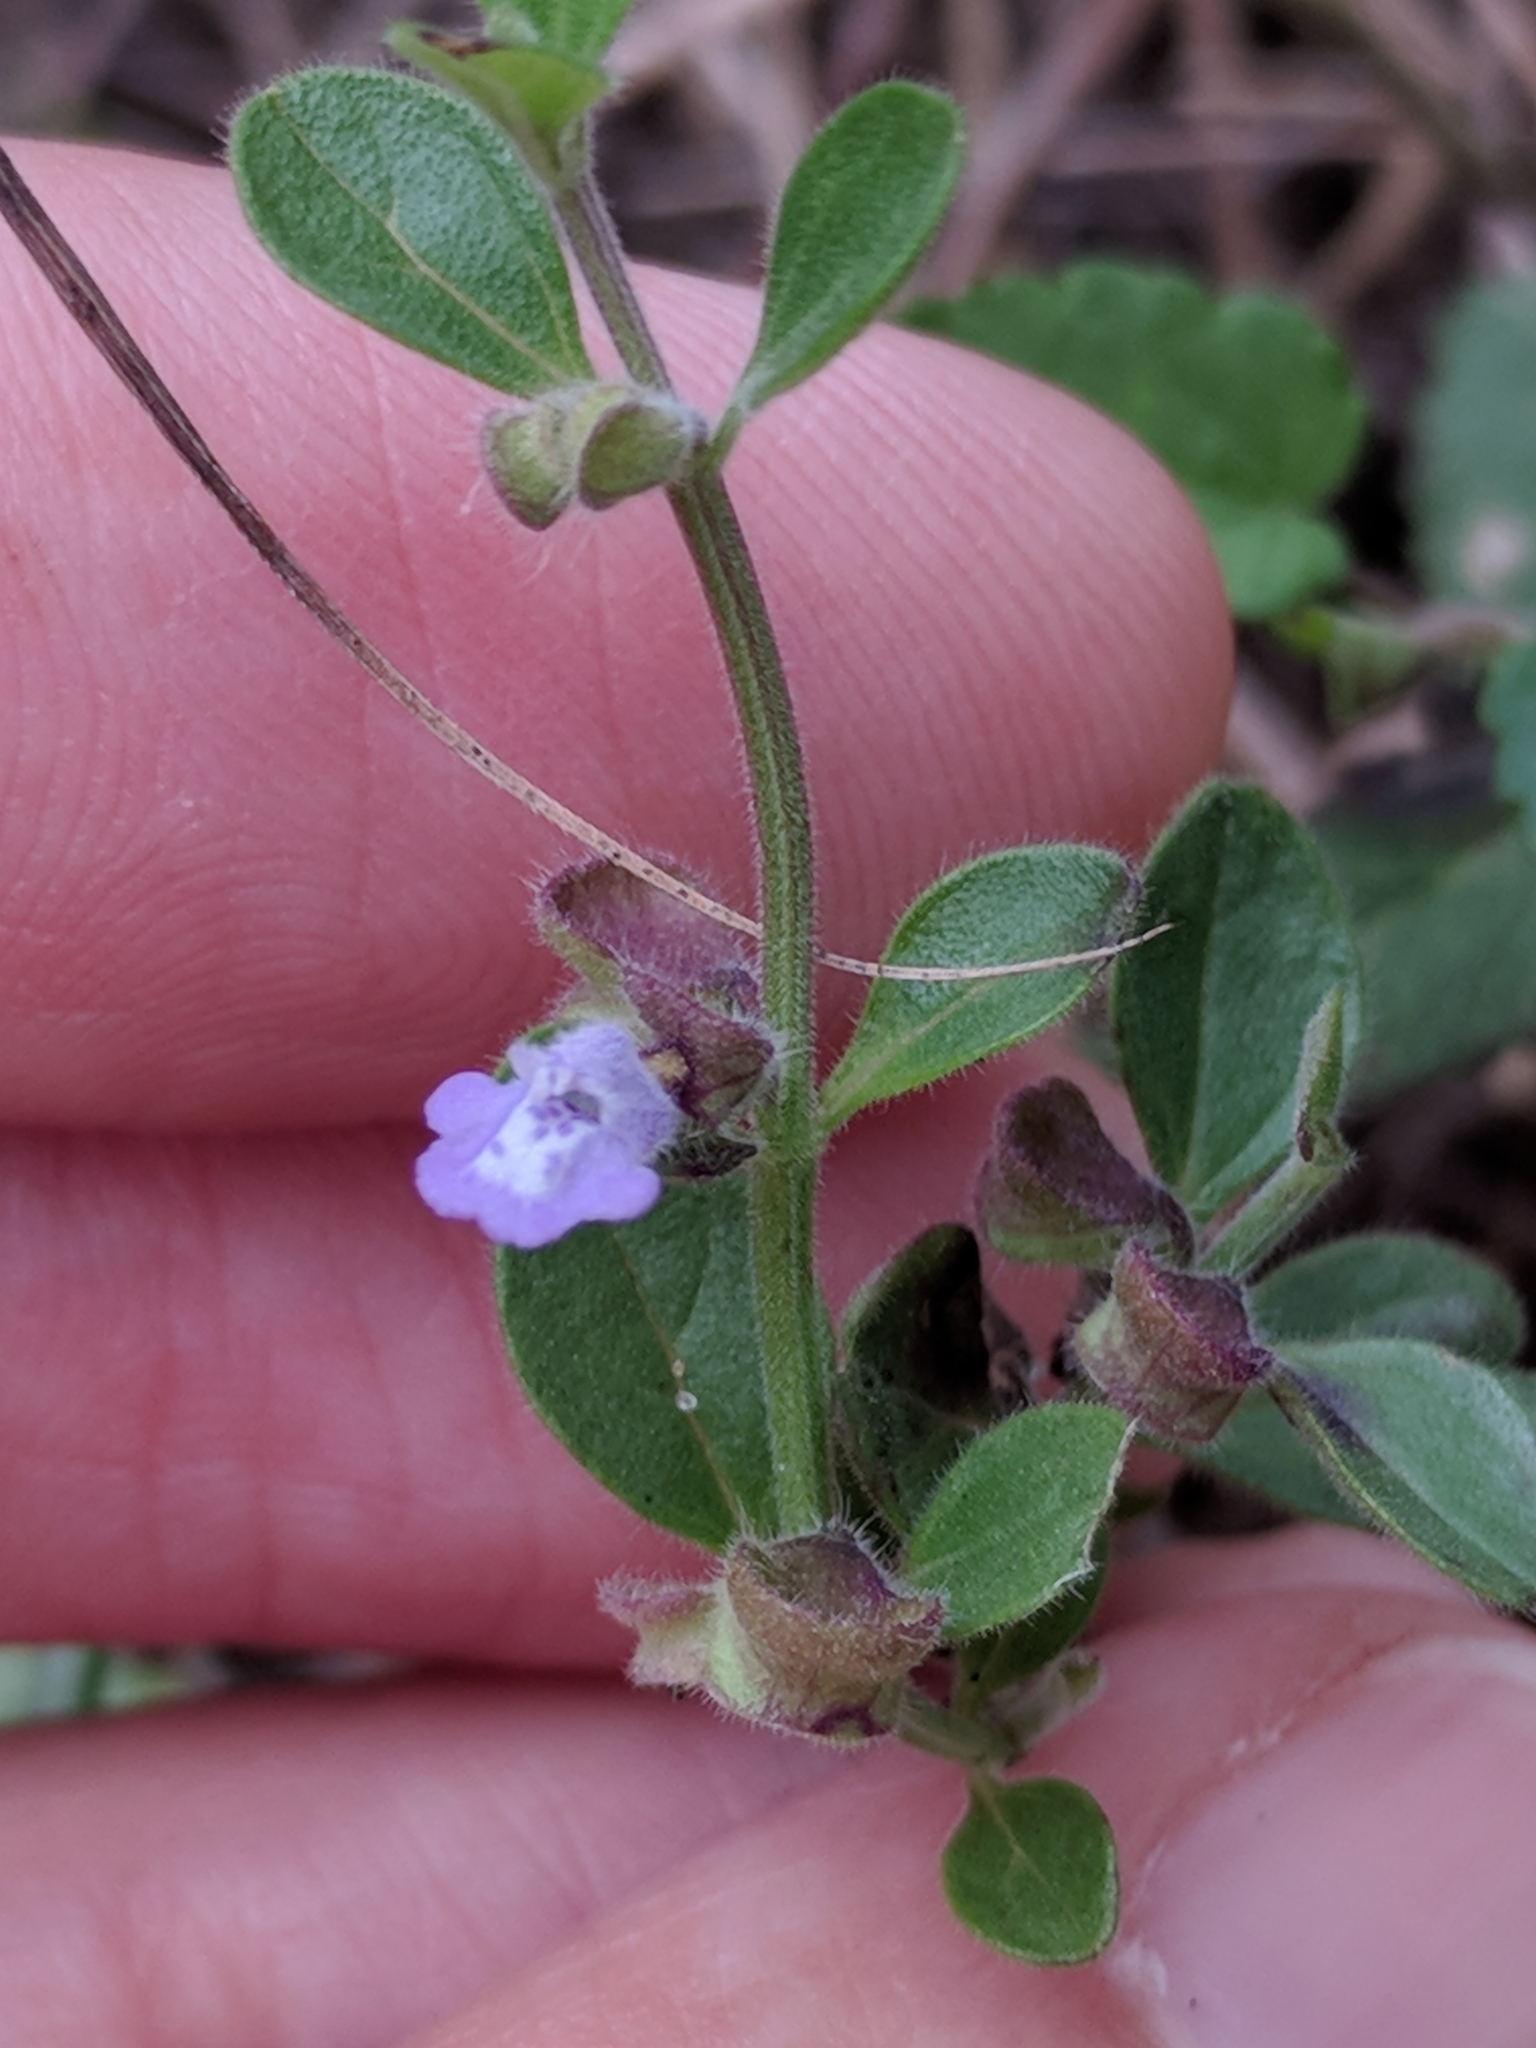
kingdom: Plantae
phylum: Tracheophyta
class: Magnoliopsida
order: Lamiales
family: Lamiaceae
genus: Scutellaria
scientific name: Scutellaria drummondii
